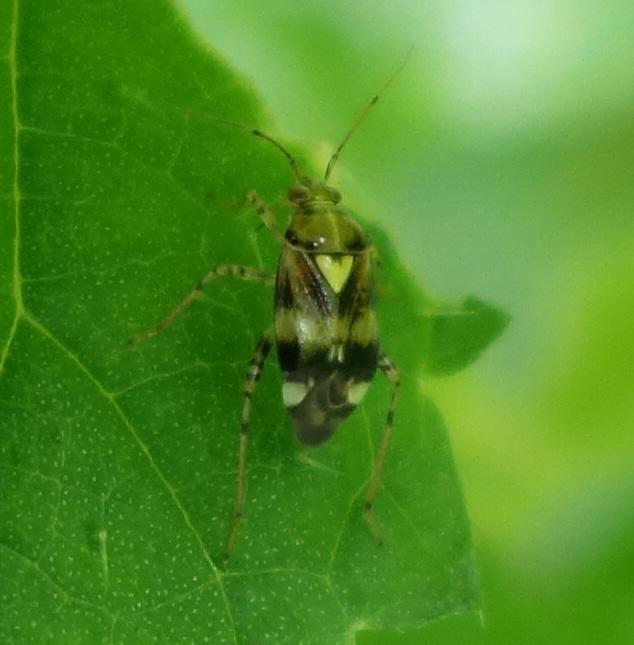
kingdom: Animalia
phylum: Arthropoda
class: Insecta
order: Hemiptera
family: Miridae
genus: Liocoris
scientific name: Liocoris tripustulatus
